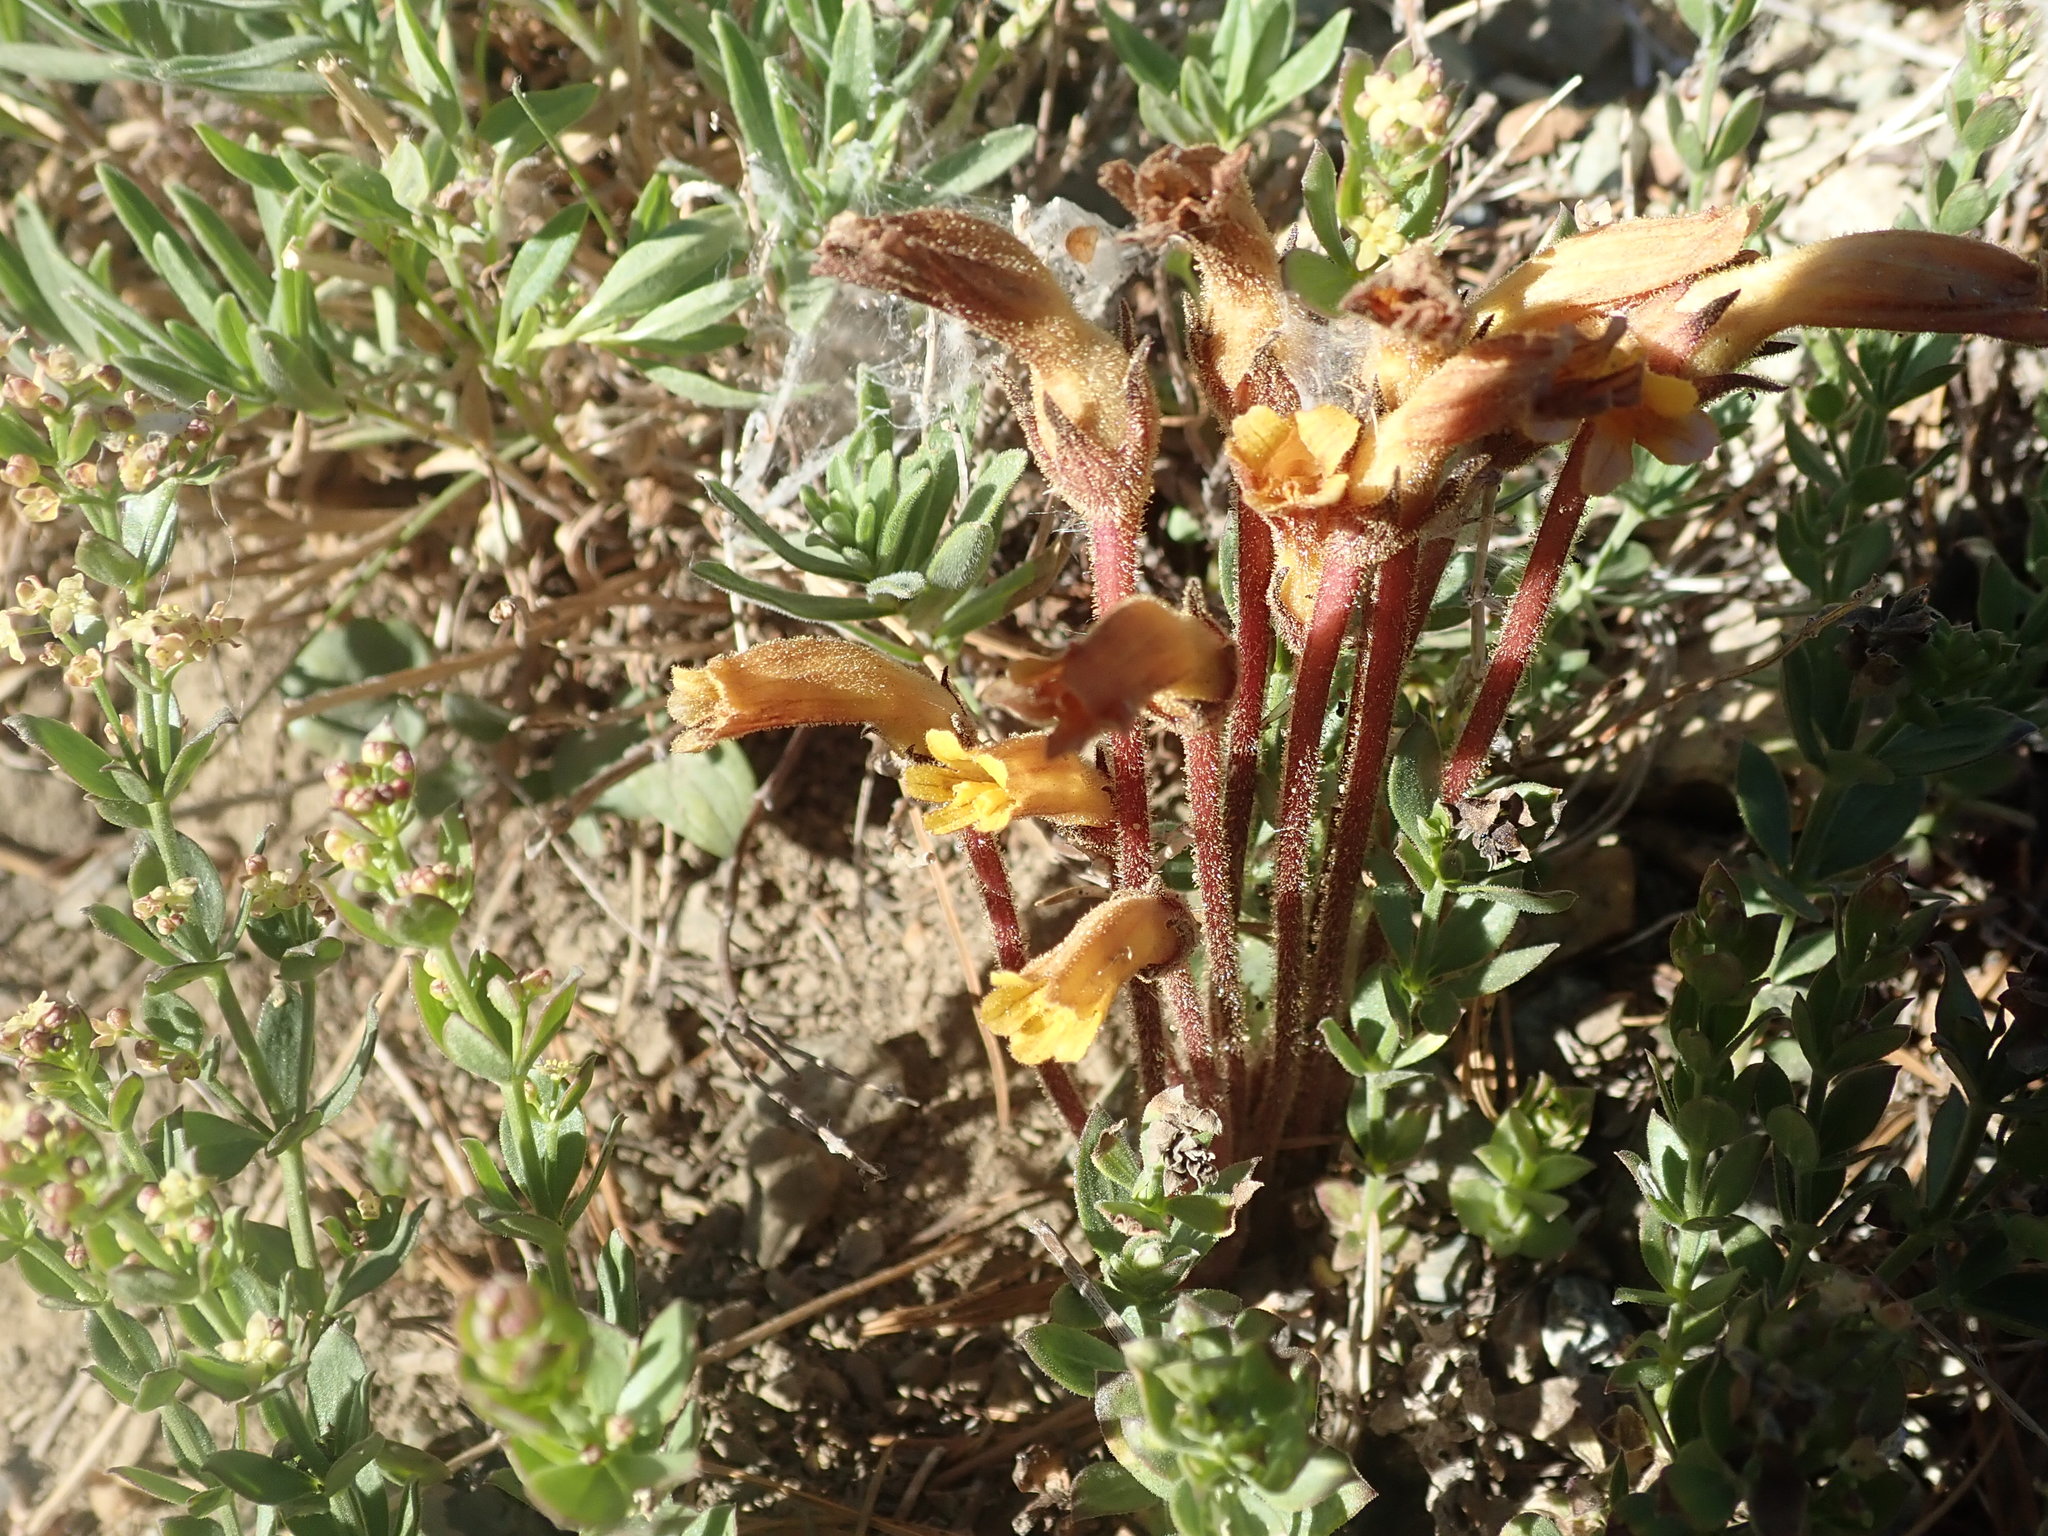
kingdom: Plantae
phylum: Tracheophyta
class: Magnoliopsida
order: Lamiales
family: Orobanchaceae
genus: Aphyllon
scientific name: Aphyllon epigalium
